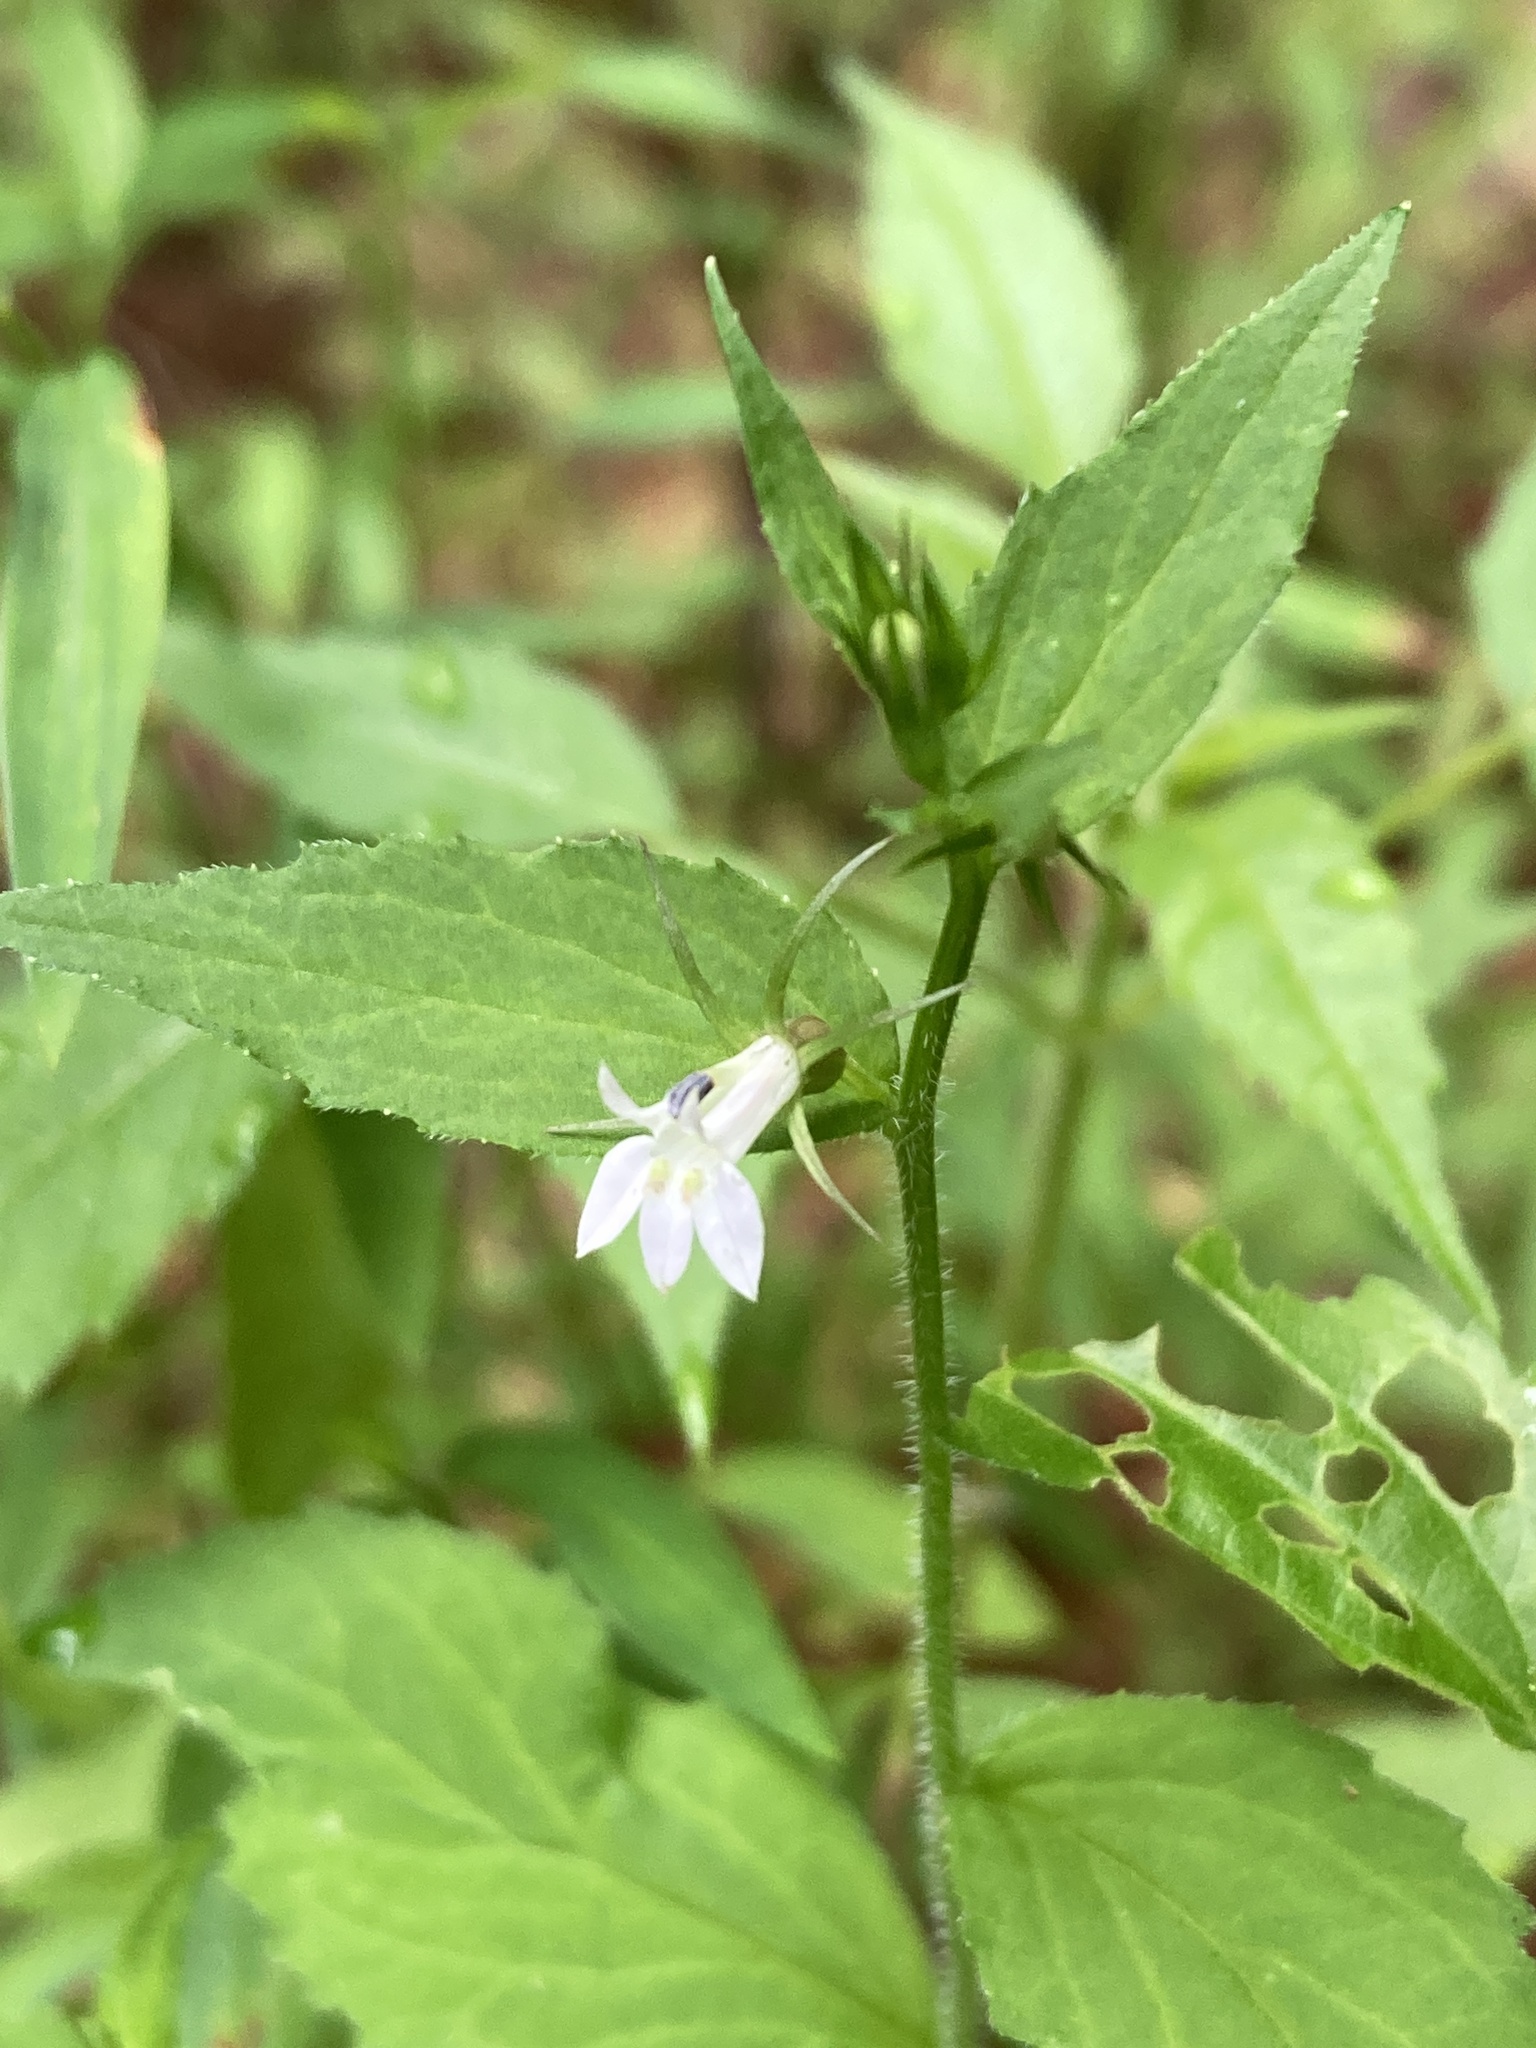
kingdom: Plantae
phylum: Tracheophyta
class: Magnoliopsida
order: Asterales
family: Campanulaceae
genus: Lobelia
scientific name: Lobelia inflata
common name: Indian tobacco
